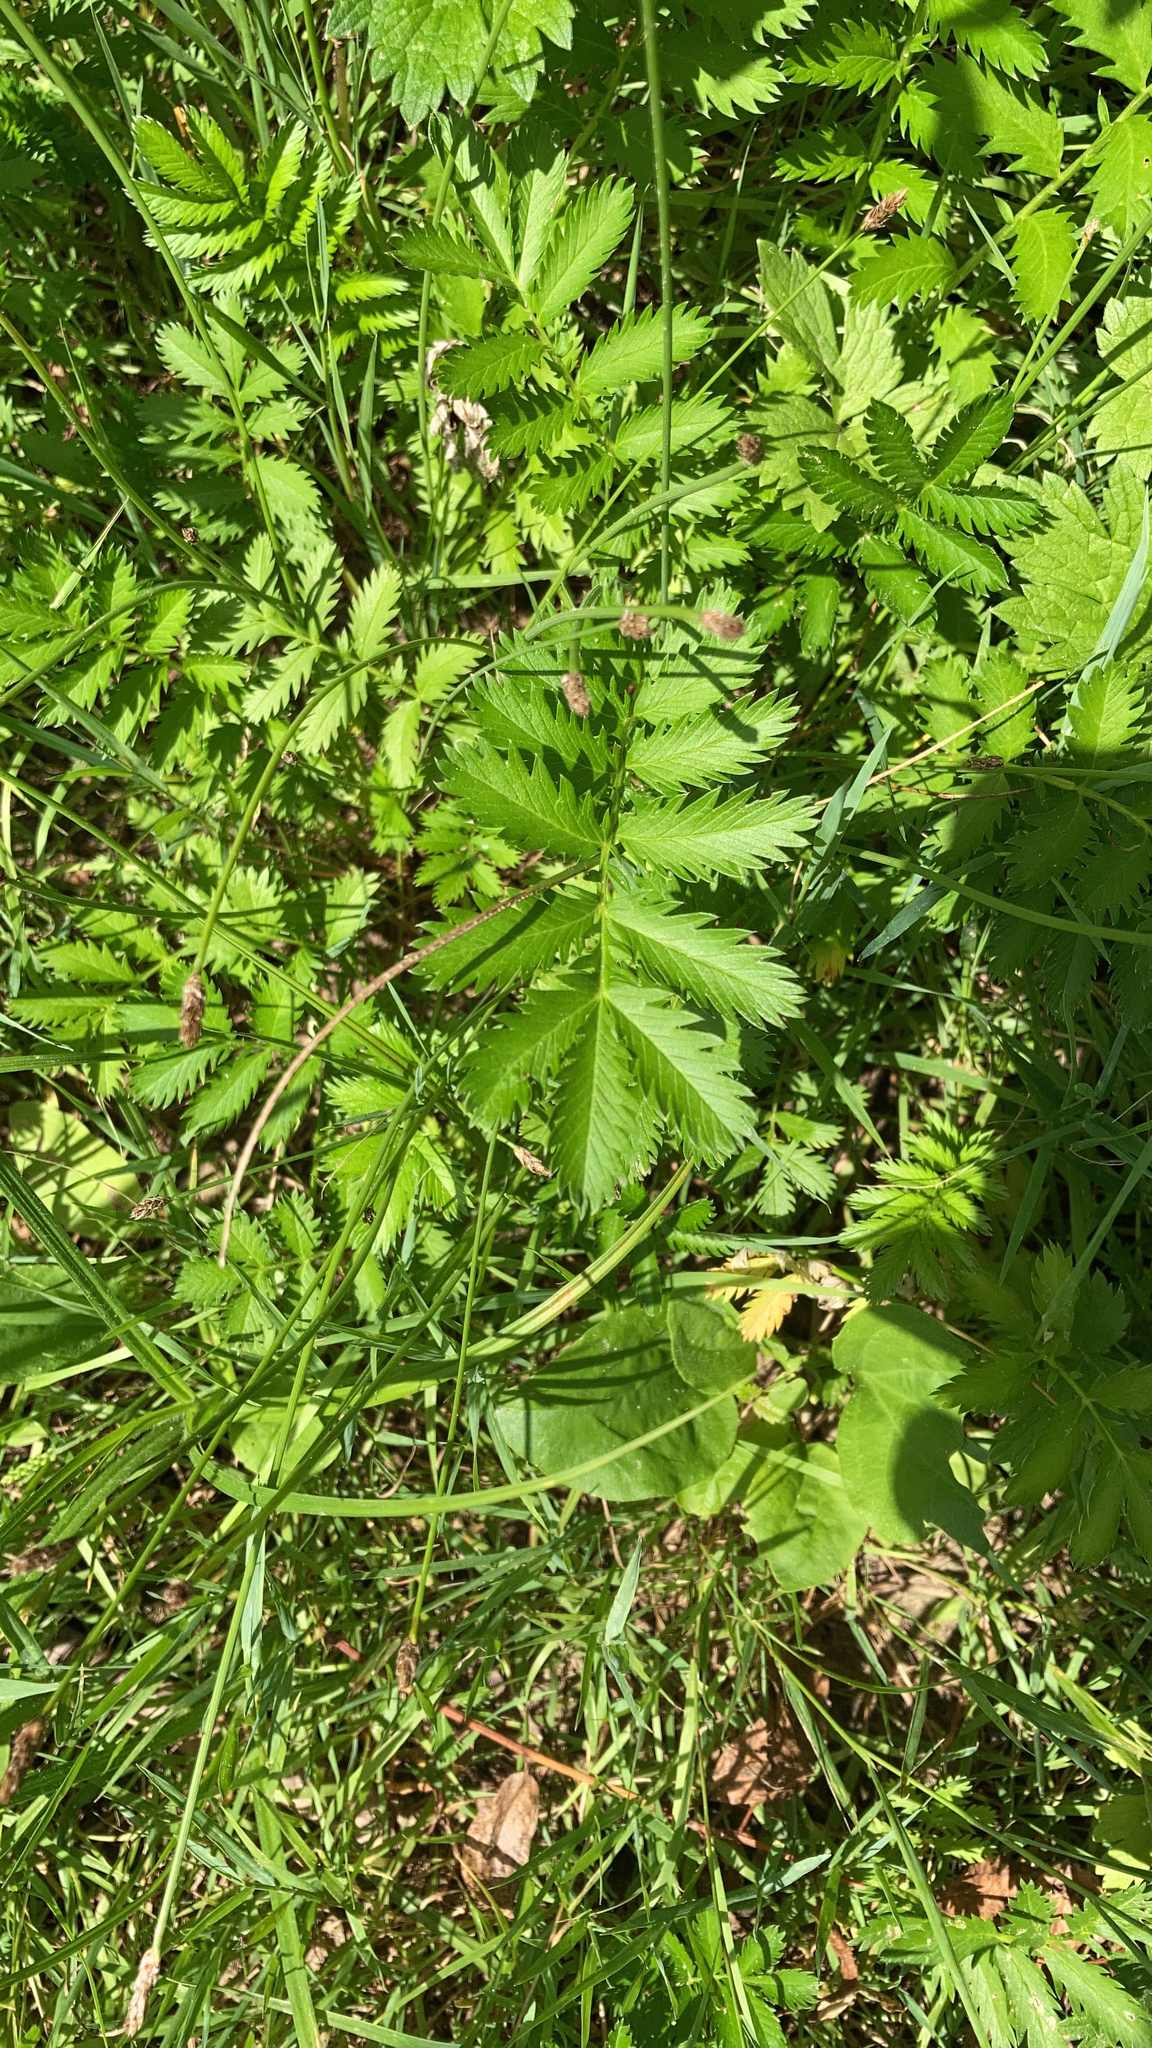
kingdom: Plantae
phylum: Tracheophyta
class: Magnoliopsida
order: Rosales
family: Rosaceae
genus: Argentina
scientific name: Argentina anserina
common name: Common silverweed
